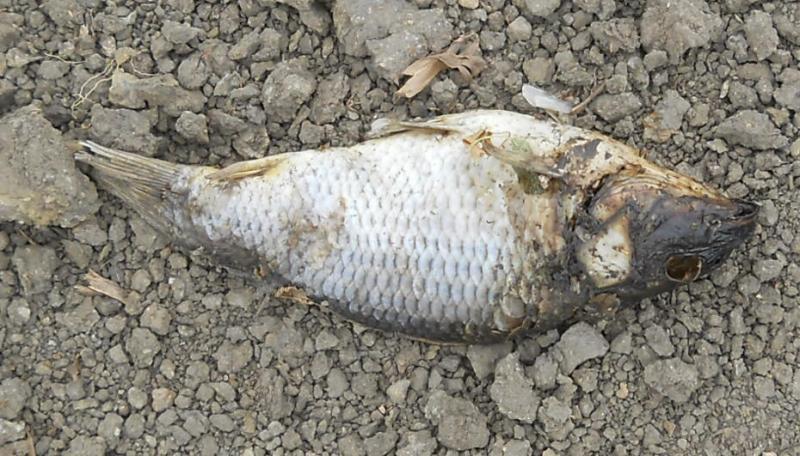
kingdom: Animalia
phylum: Chordata
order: Cypriniformes
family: Cyprinidae
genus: Cyprinus
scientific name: Cyprinus carpio
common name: Common carp
